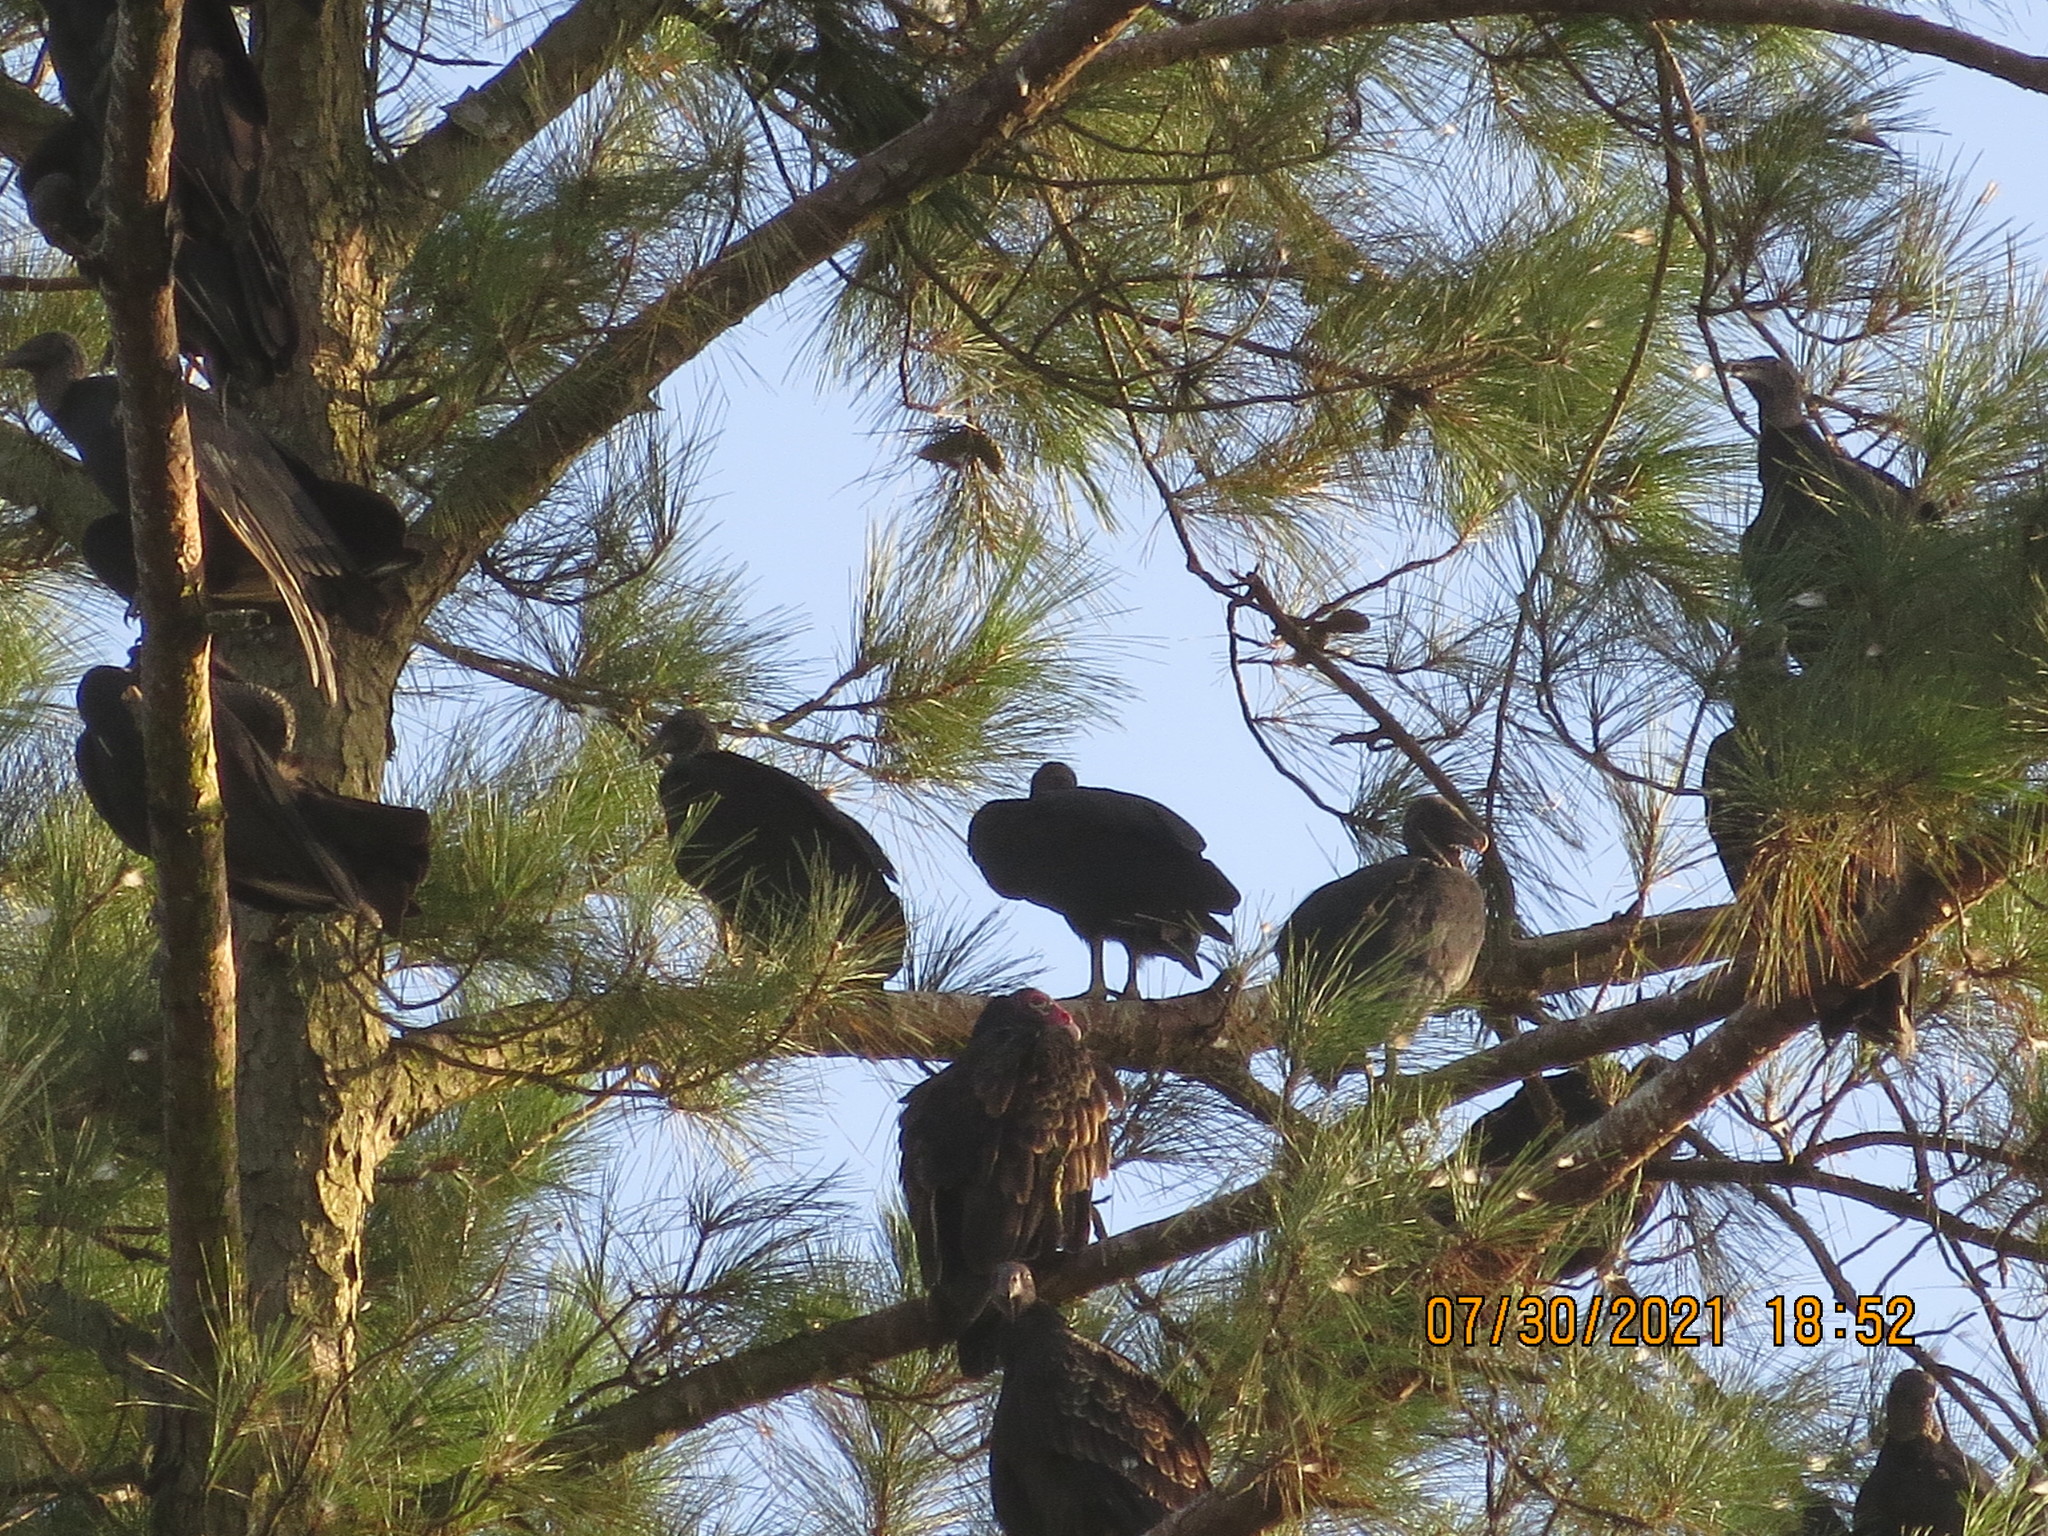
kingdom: Animalia
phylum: Chordata
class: Aves
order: Accipitriformes
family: Cathartidae
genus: Coragyps
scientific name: Coragyps atratus
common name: Black vulture
